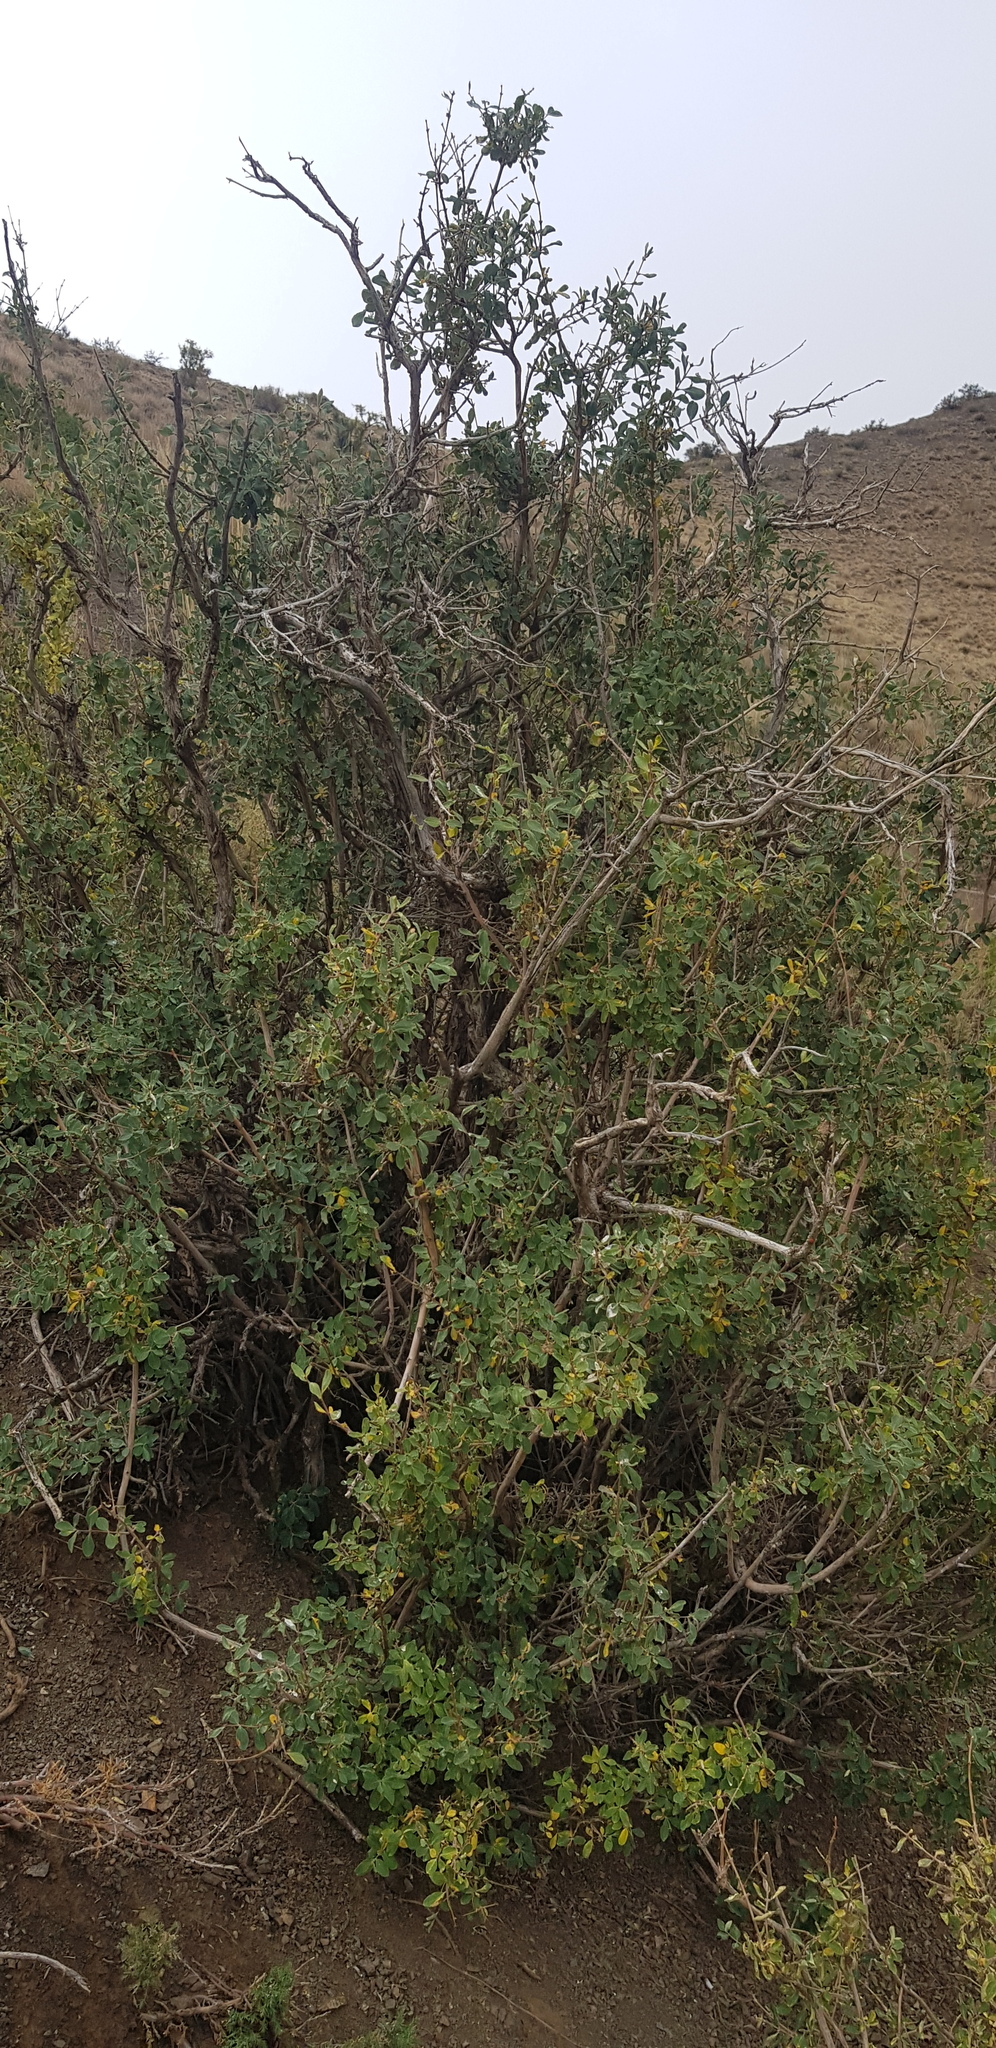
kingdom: Plantae
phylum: Tracheophyta
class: Magnoliopsida
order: Dipsacales
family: Caprifoliaceae
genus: Lonicera
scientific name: Lonicera microphylla
